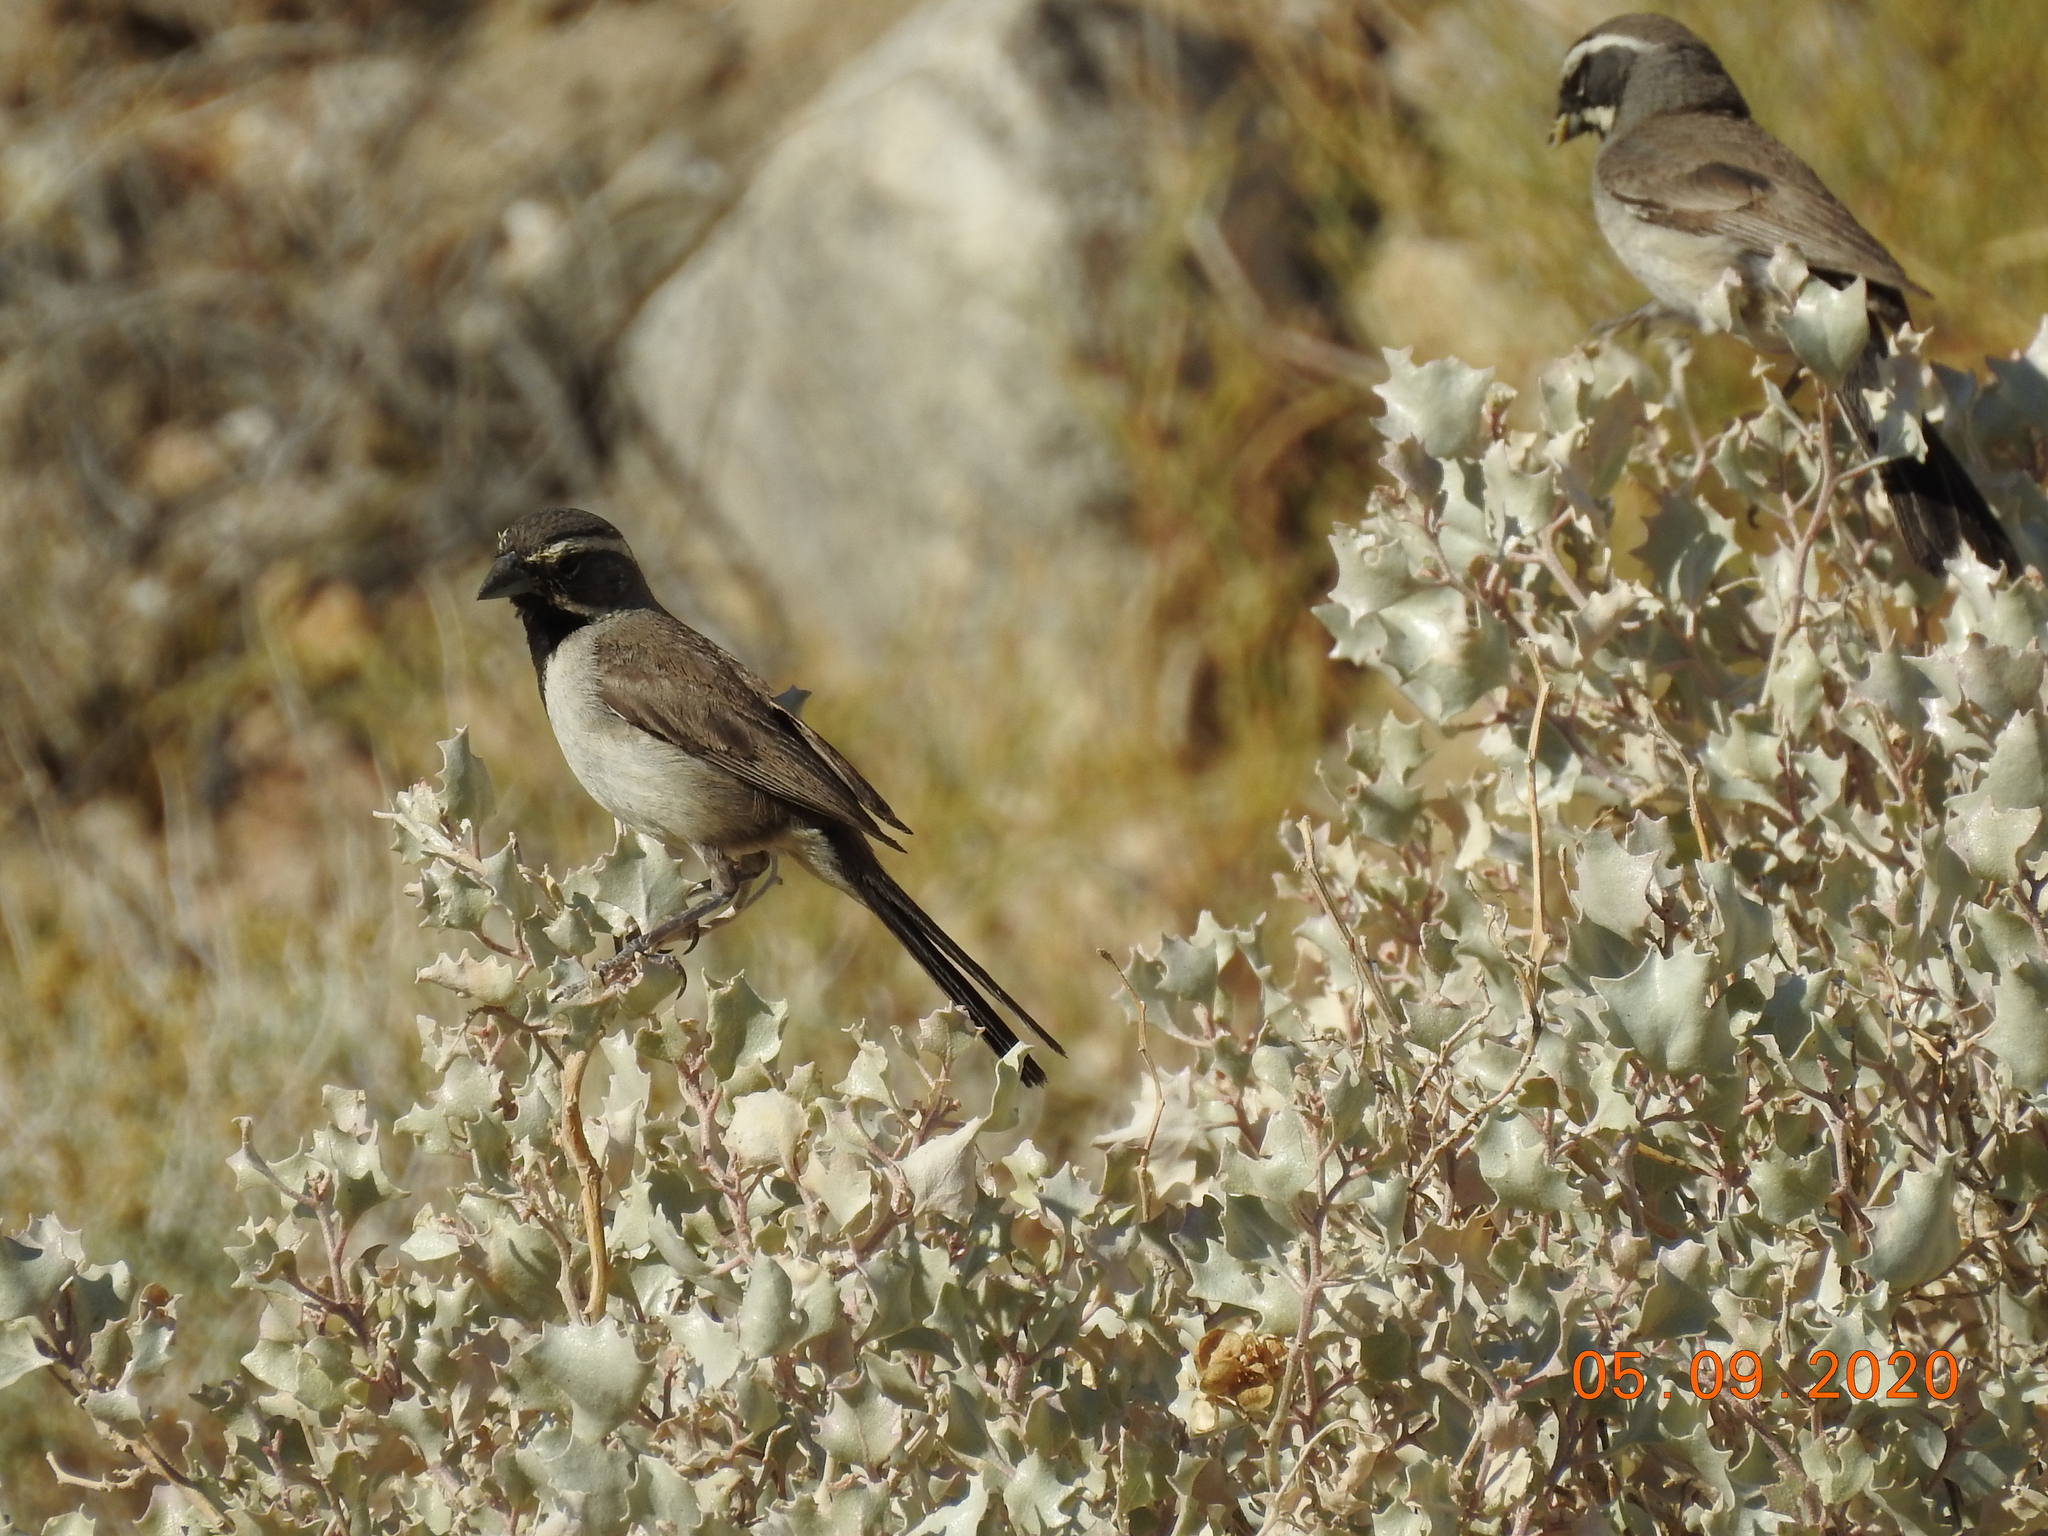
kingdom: Animalia
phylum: Chordata
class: Aves
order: Passeriformes
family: Passerellidae
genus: Amphispiza
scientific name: Amphispiza bilineata
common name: Black-throated sparrow
